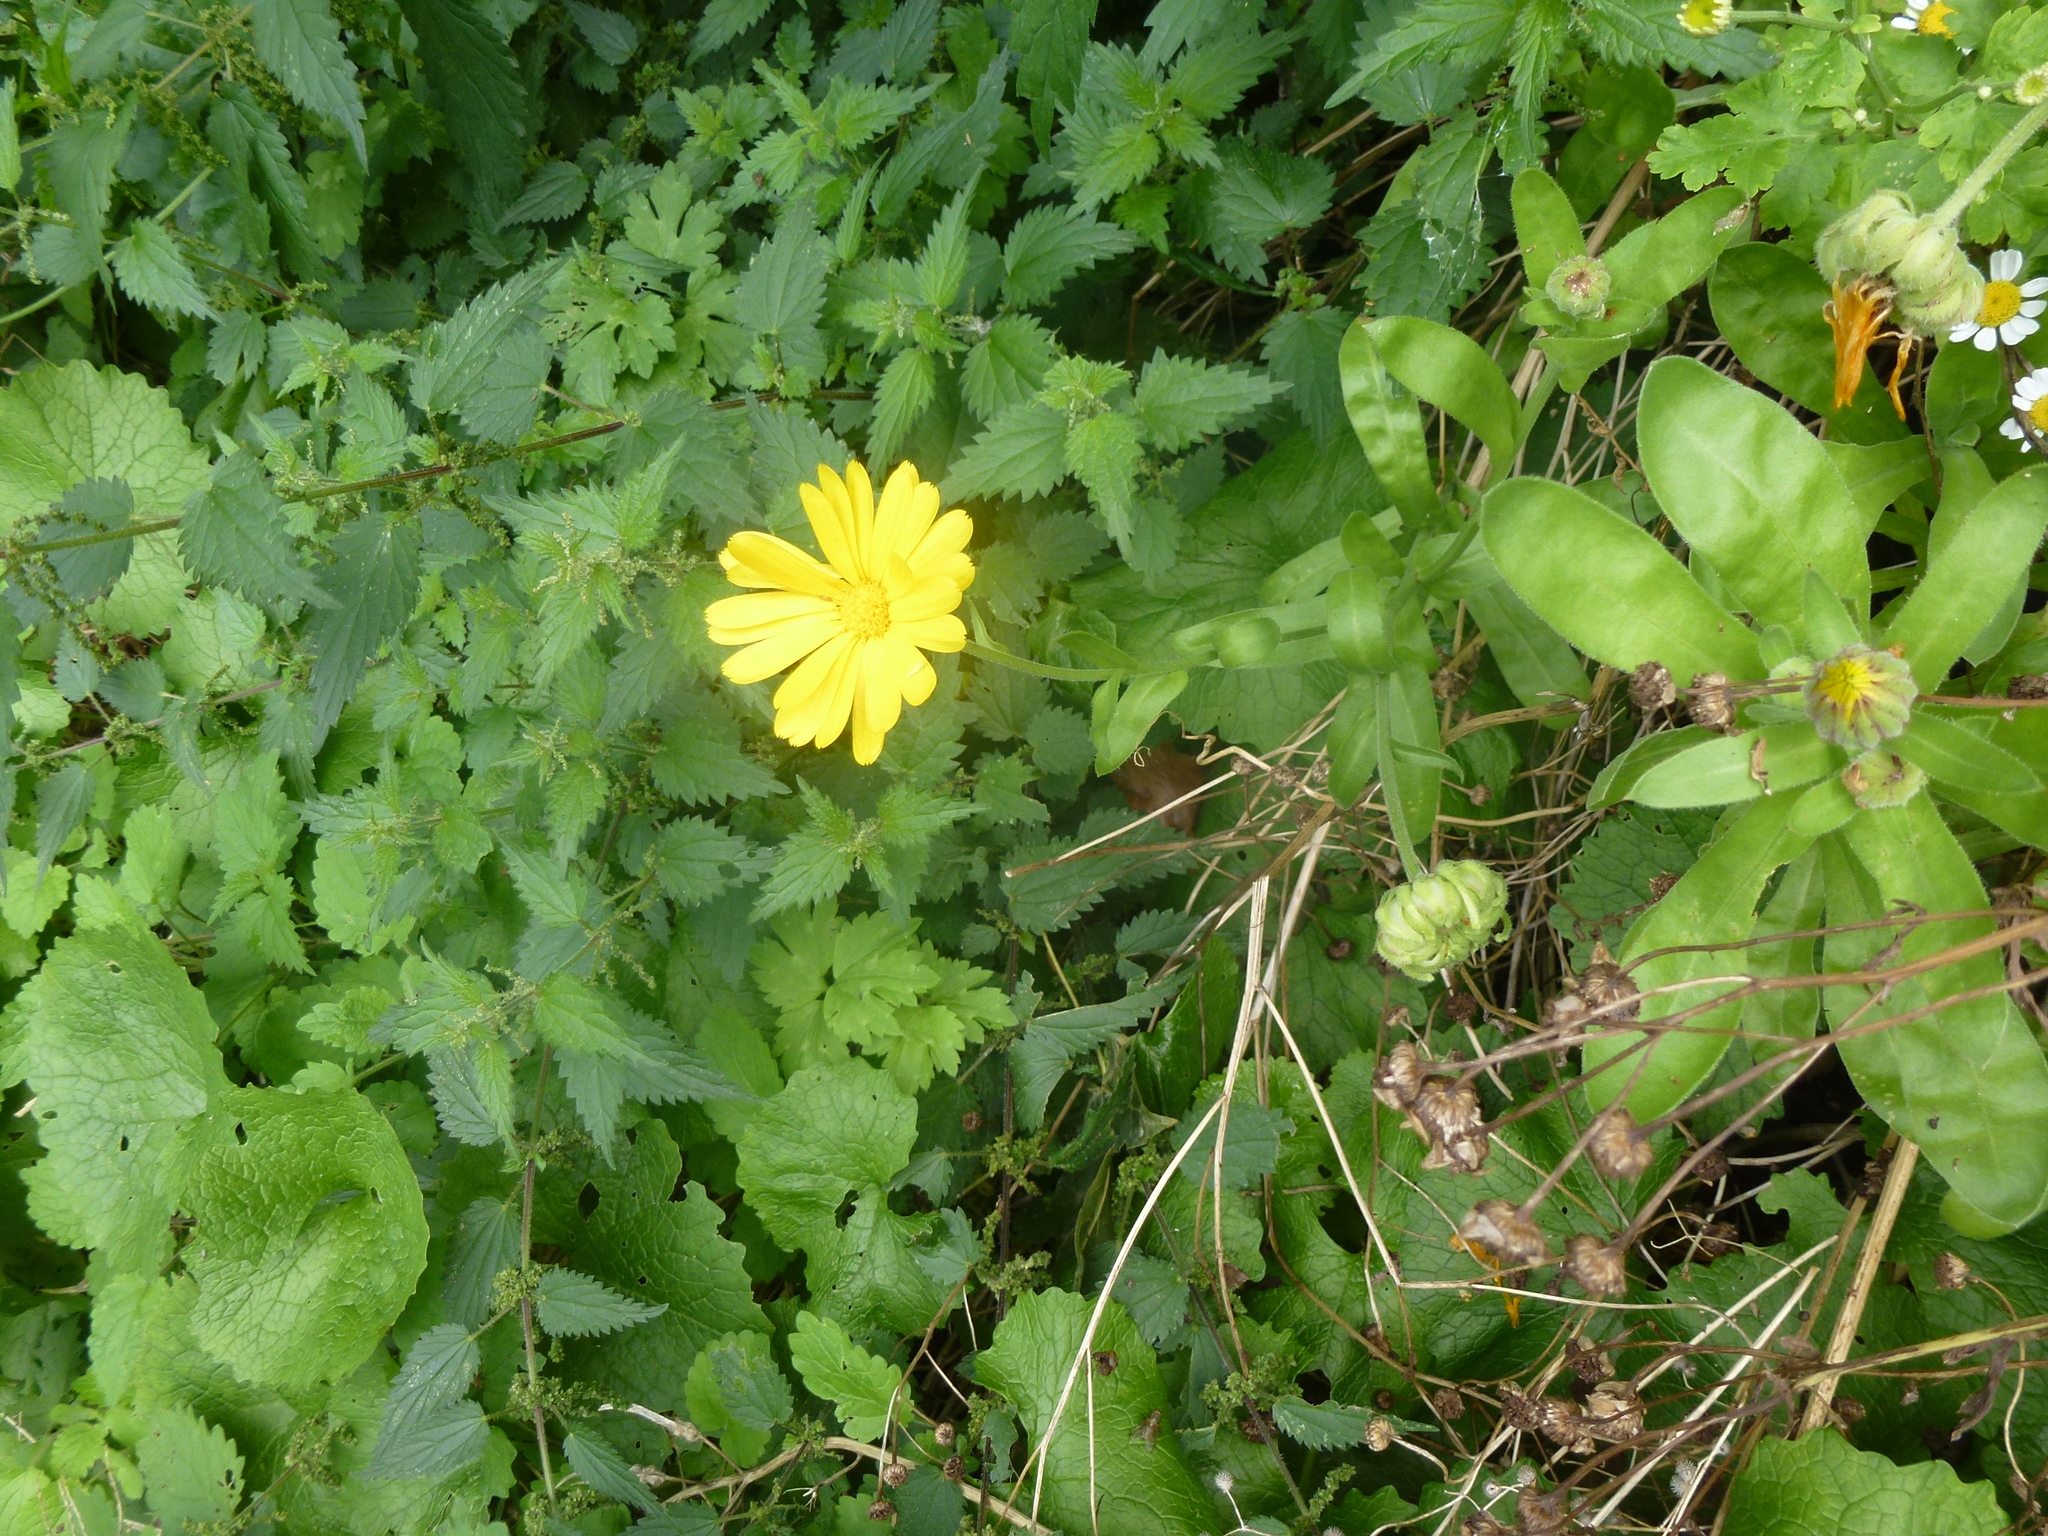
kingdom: Plantae
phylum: Tracheophyta
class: Magnoliopsida
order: Asterales
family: Asteraceae
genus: Calendula
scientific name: Calendula officinalis
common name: Pot marigold
